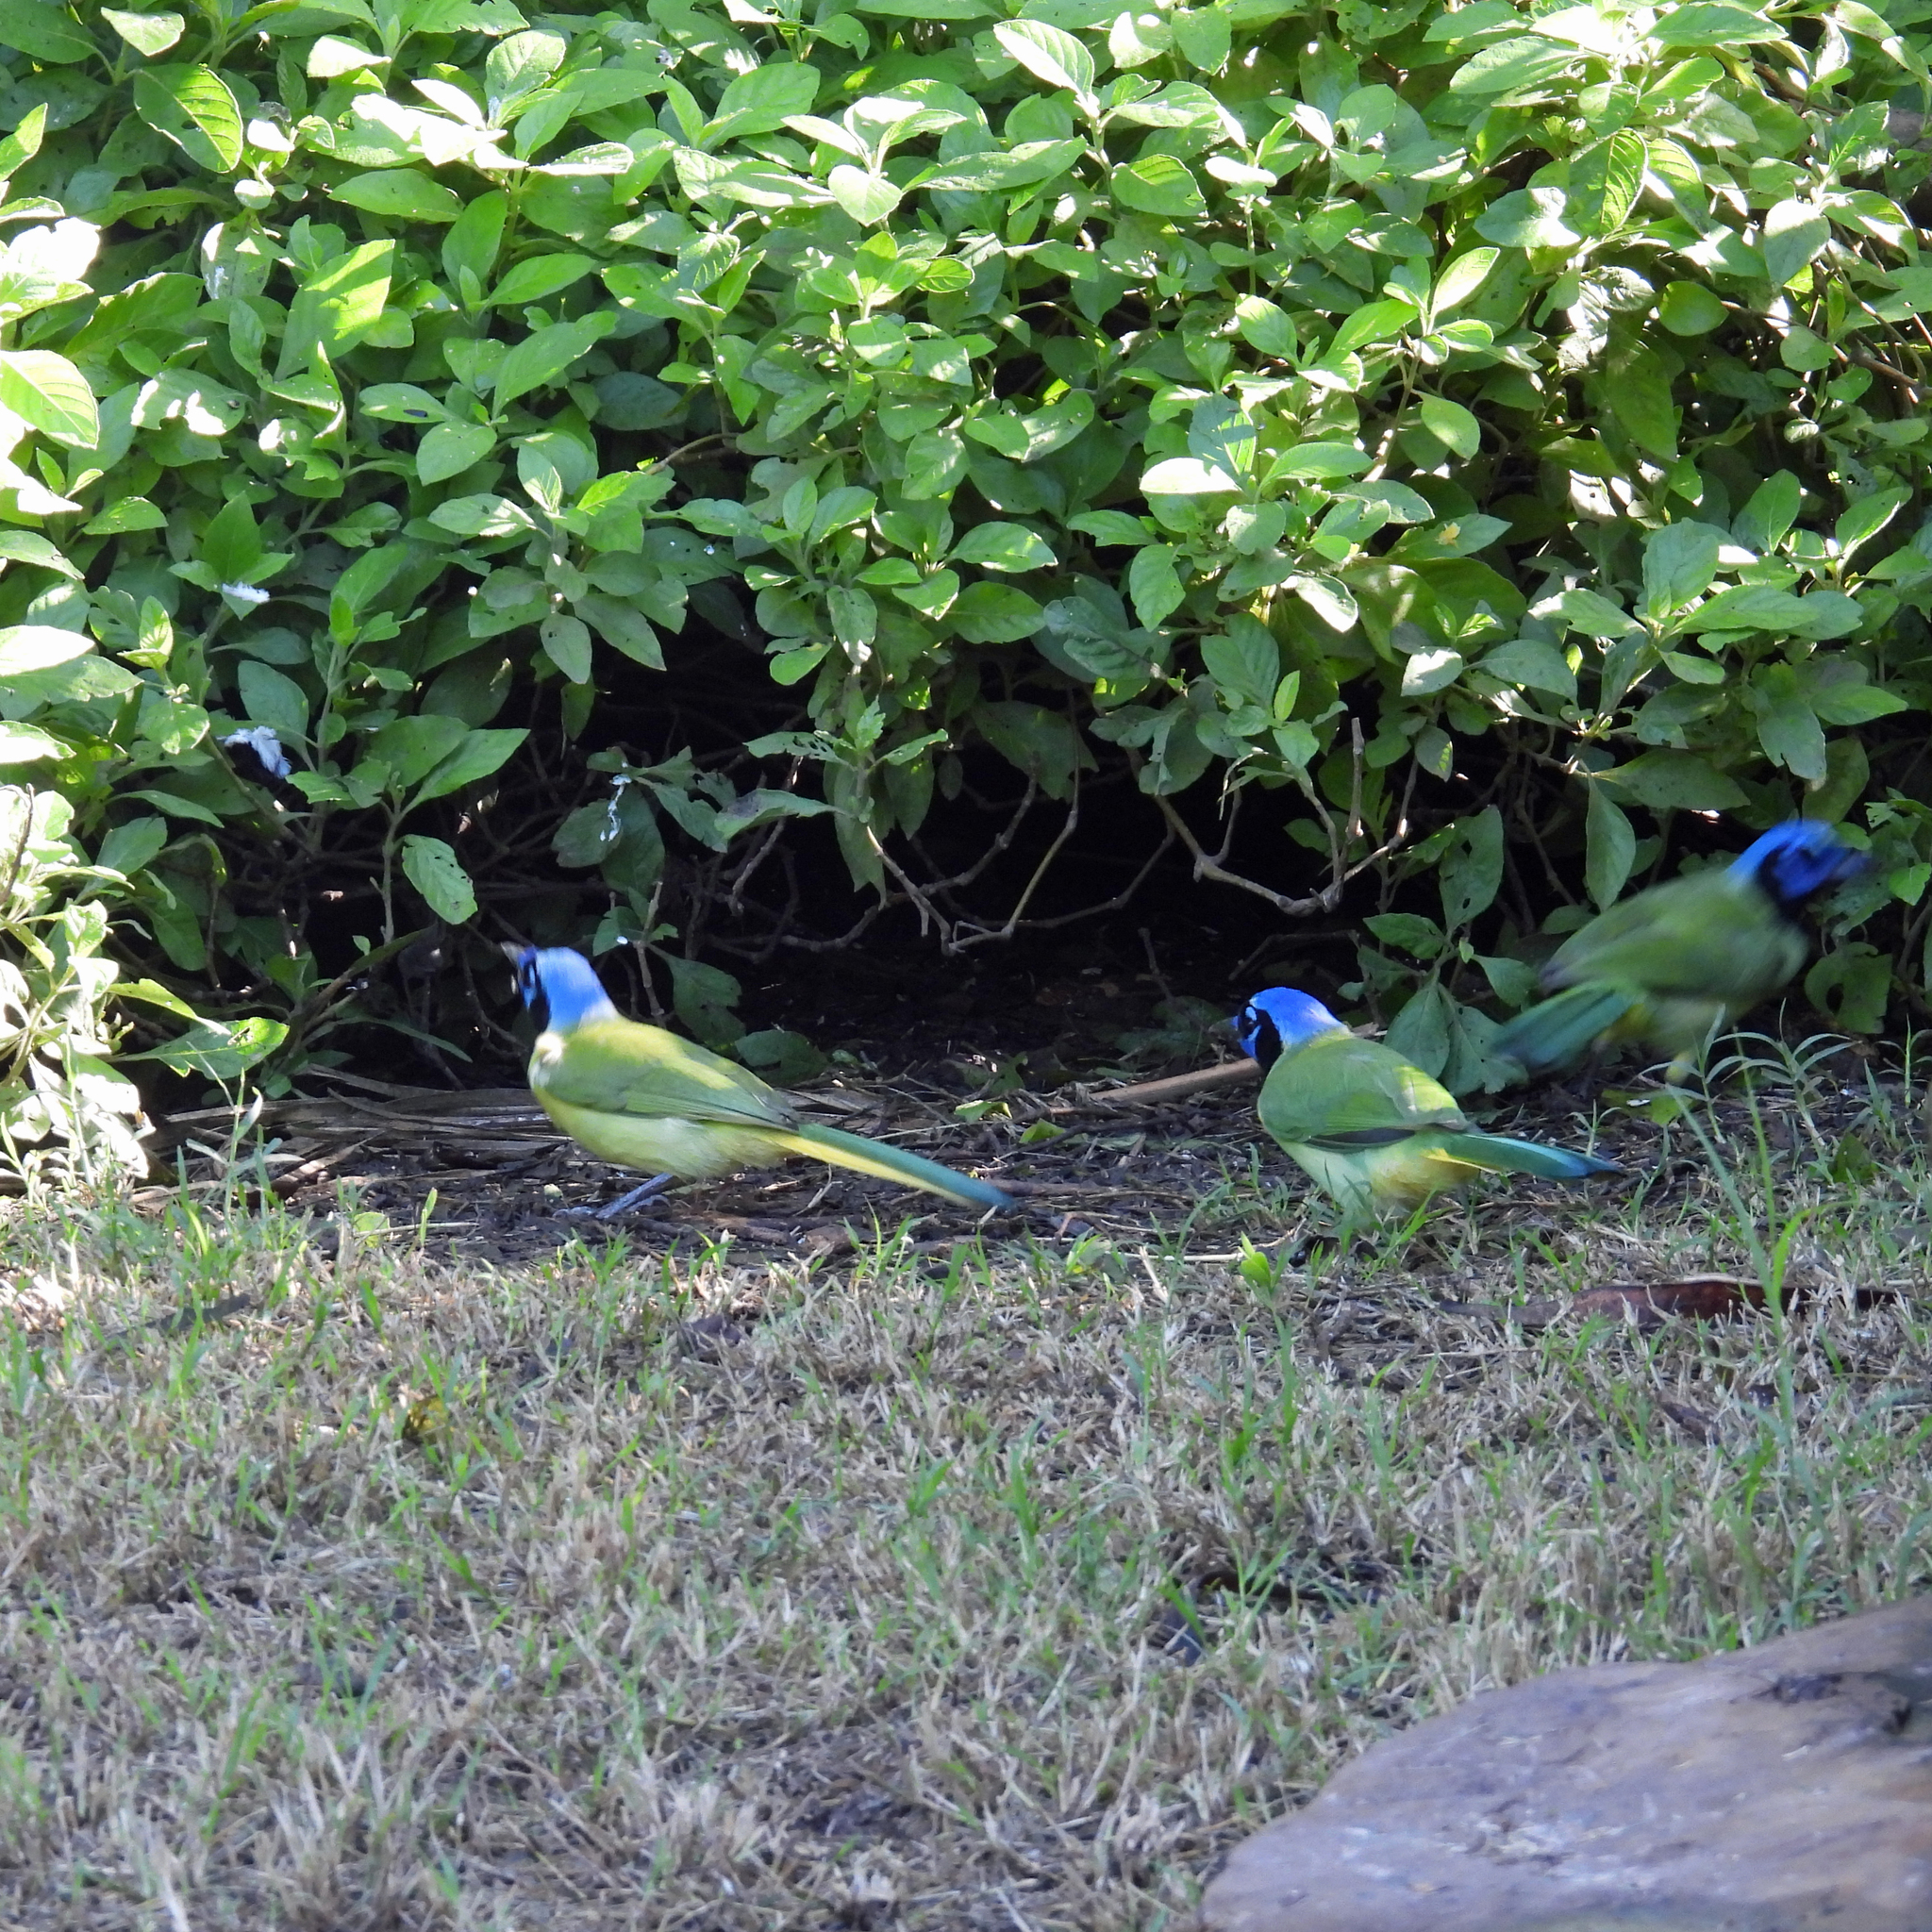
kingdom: Animalia
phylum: Chordata
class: Aves
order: Passeriformes
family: Corvidae
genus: Cyanocorax
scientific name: Cyanocorax yncas
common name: Green jay
